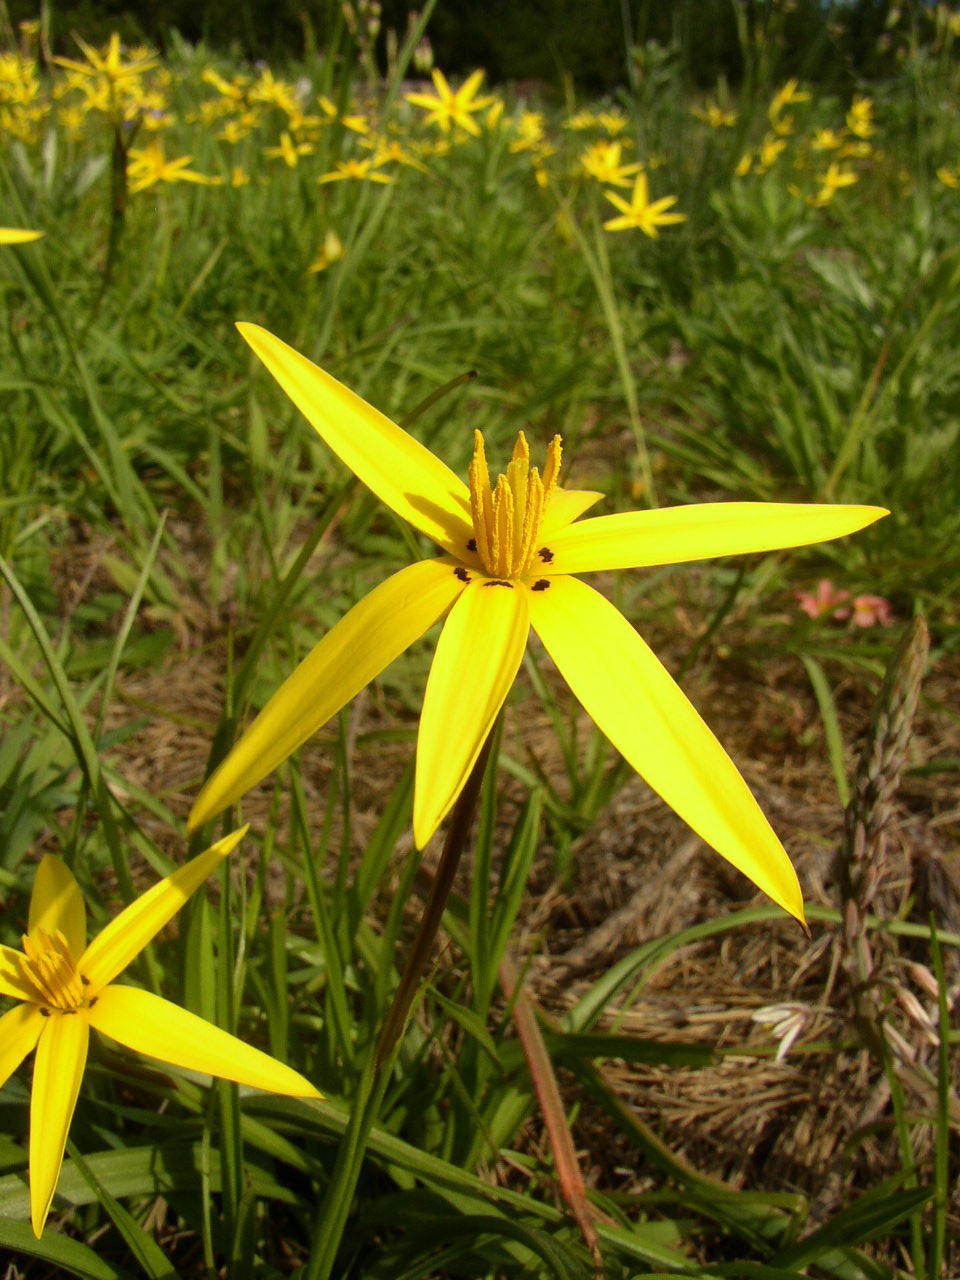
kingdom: Plantae
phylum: Tracheophyta
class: Liliopsida
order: Asparagales
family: Hypoxidaceae
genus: Pauridia
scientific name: Pauridia capensis
